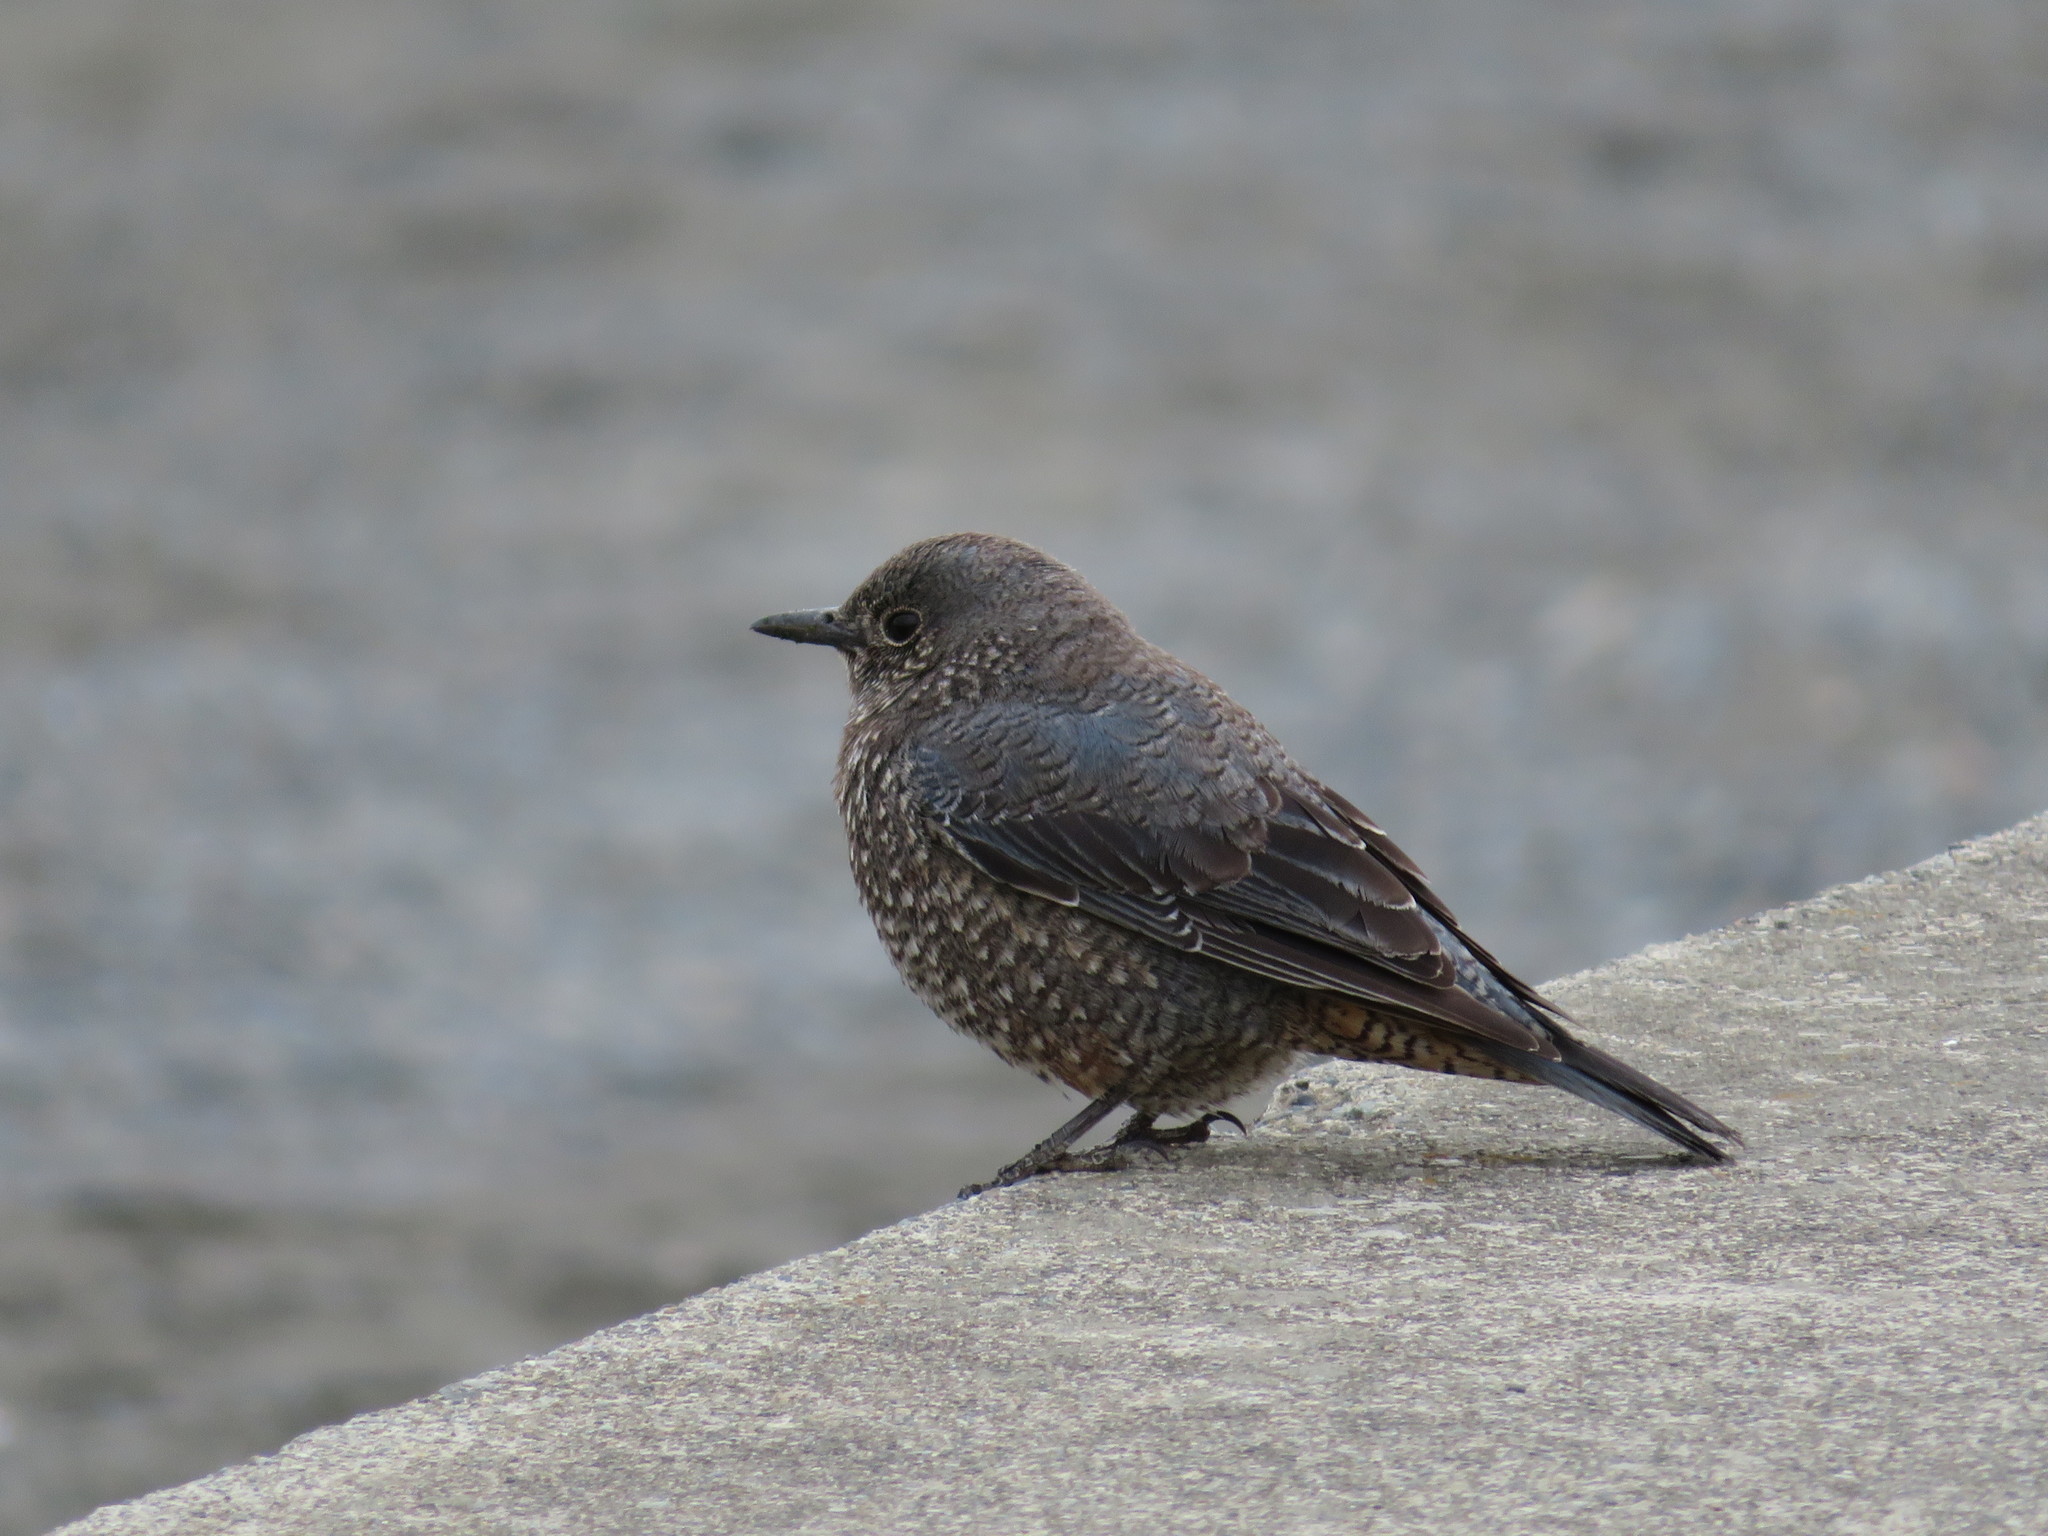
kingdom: Animalia
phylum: Chordata
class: Aves
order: Passeriformes
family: Muscicapidae
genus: Monticola
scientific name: Monticola solitarius
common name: Blue rock thrush
